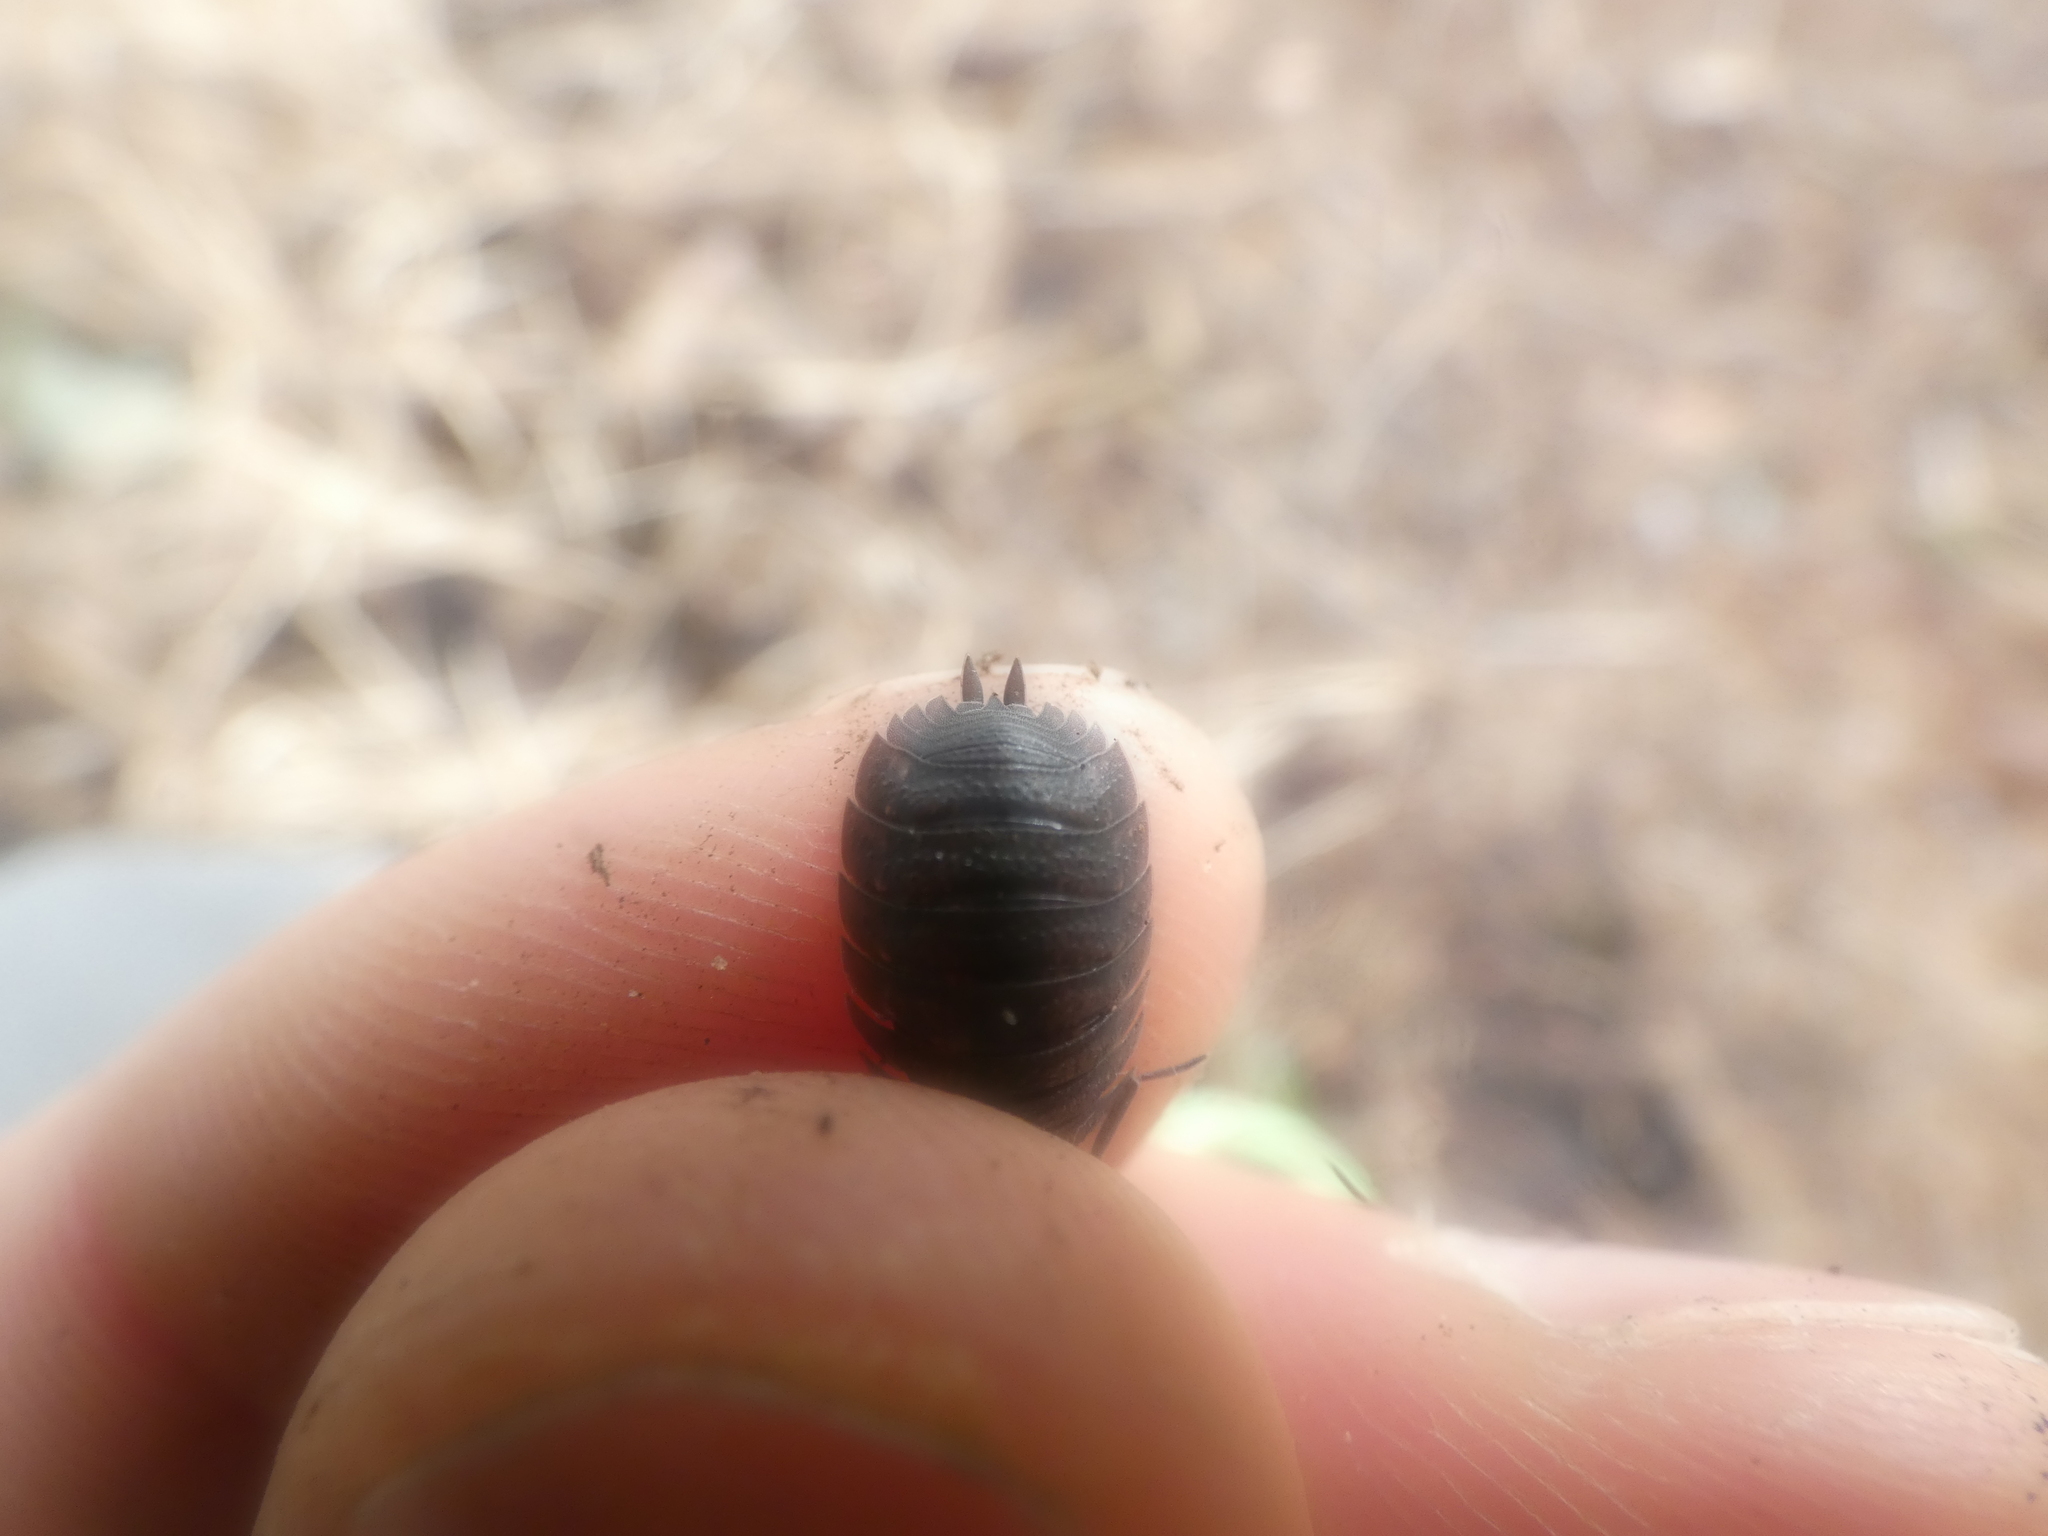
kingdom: Animalia
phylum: Arthropoda
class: Malacostraca
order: Isopoda
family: Porcellionidae
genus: Porcellio
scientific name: Porcellio scaber
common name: Common rough woodlouse
